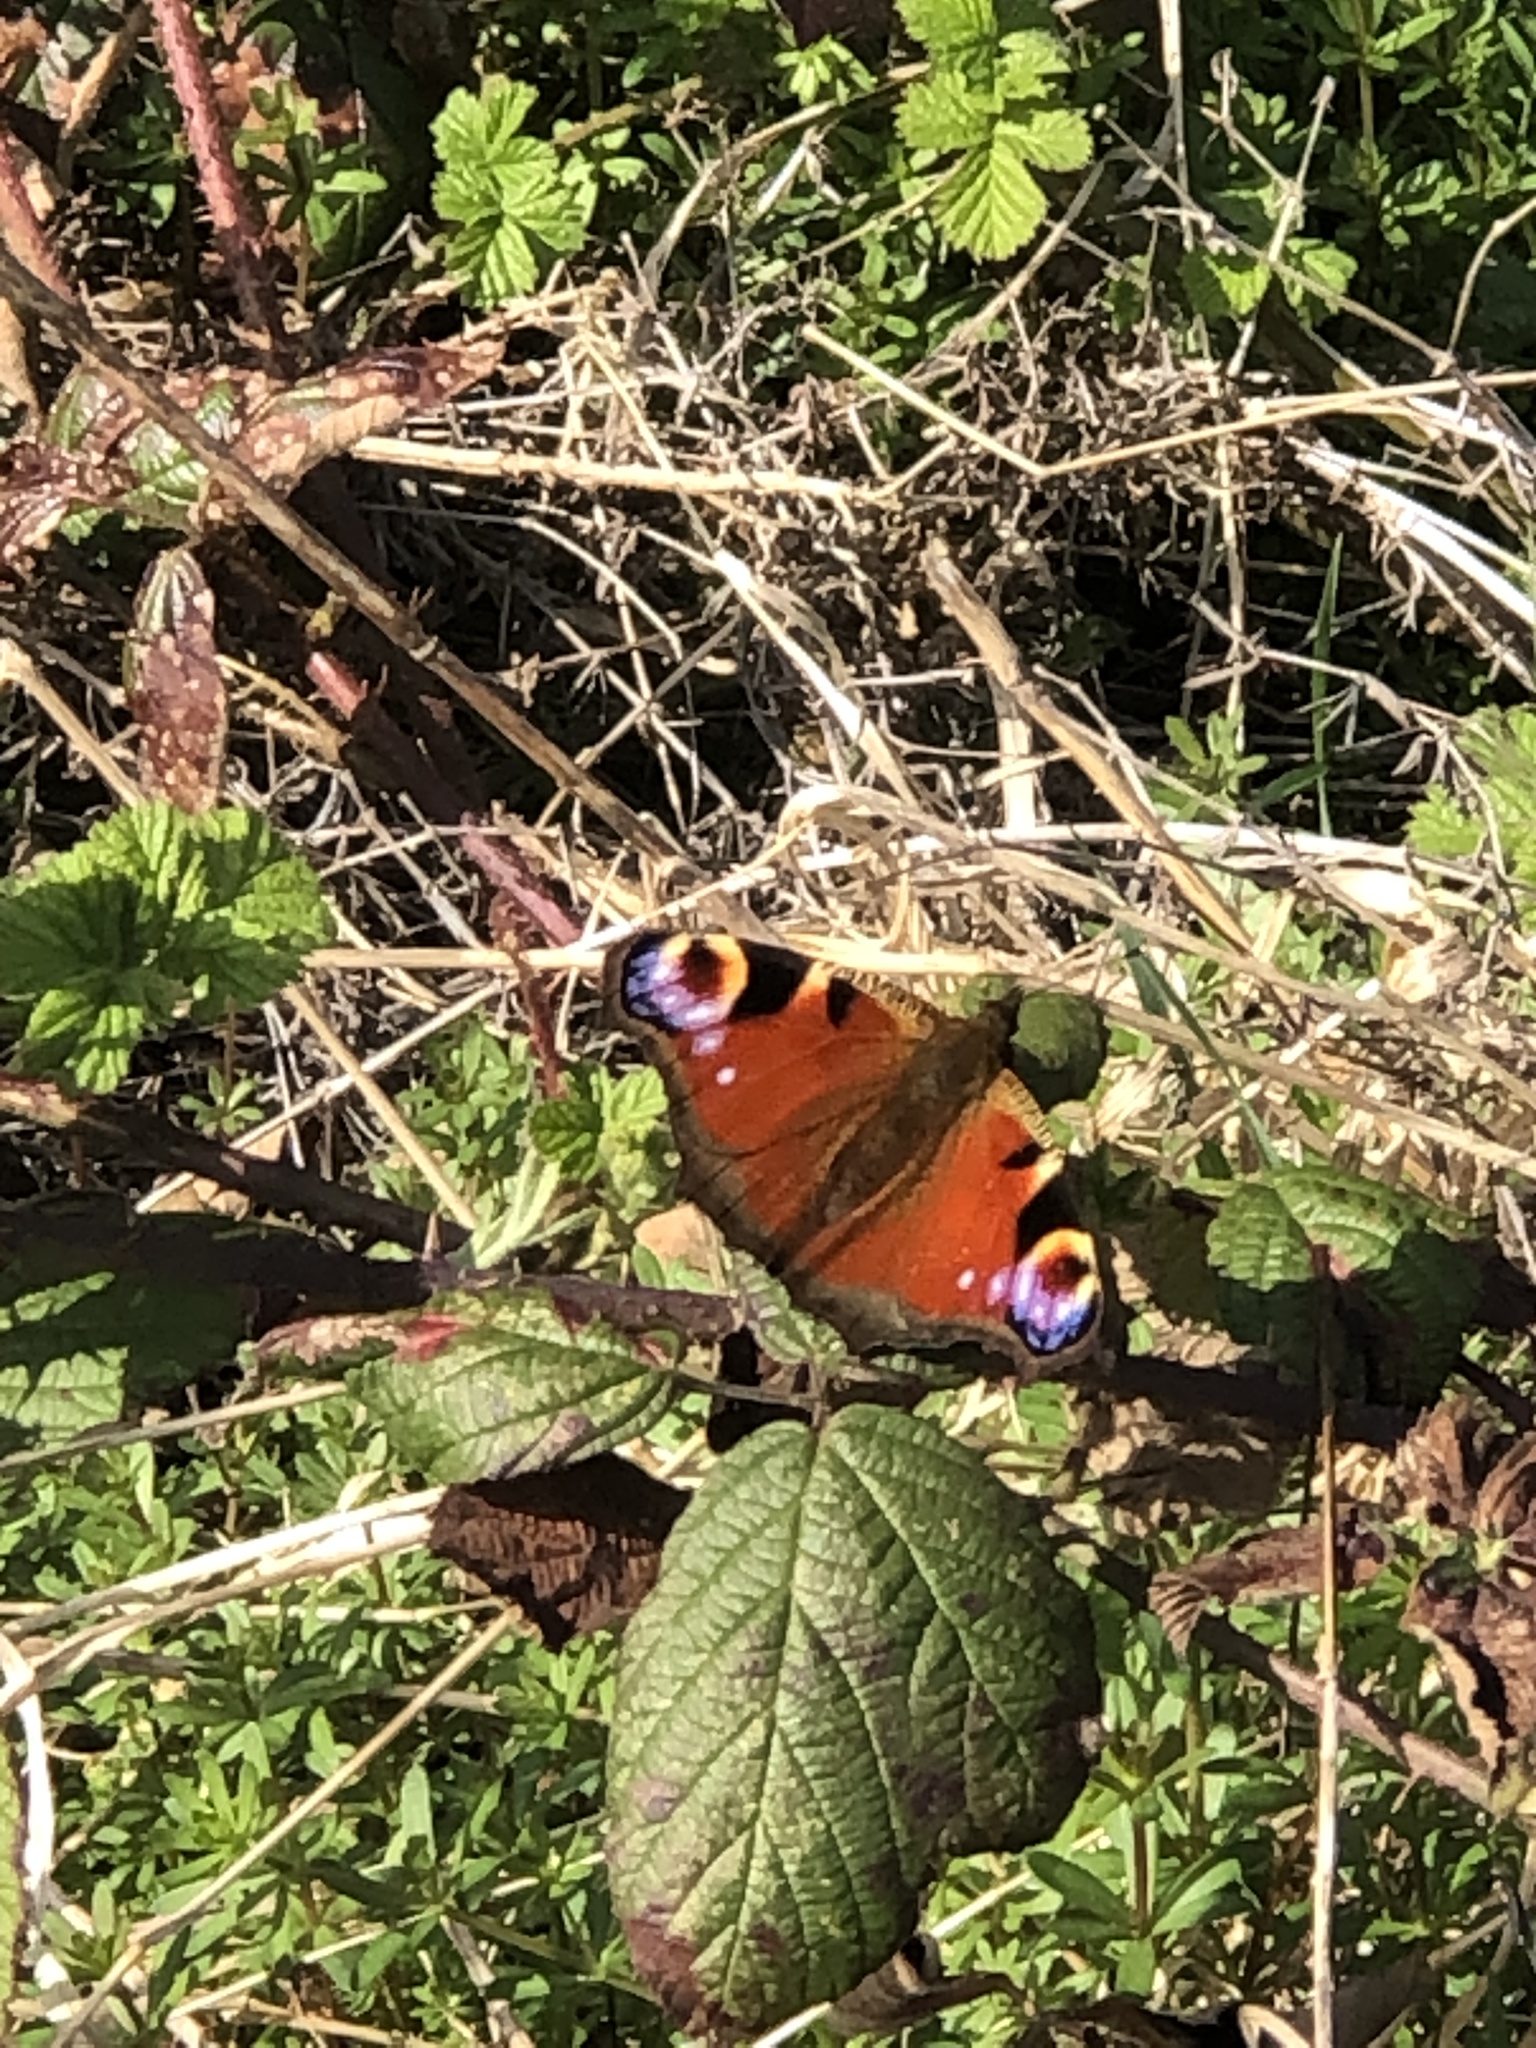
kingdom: Animalia
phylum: Arthropoda
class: Insecta
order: Lepidoptera
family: Nymphalidae
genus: Aglais
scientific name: Aglais io
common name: Peacock
